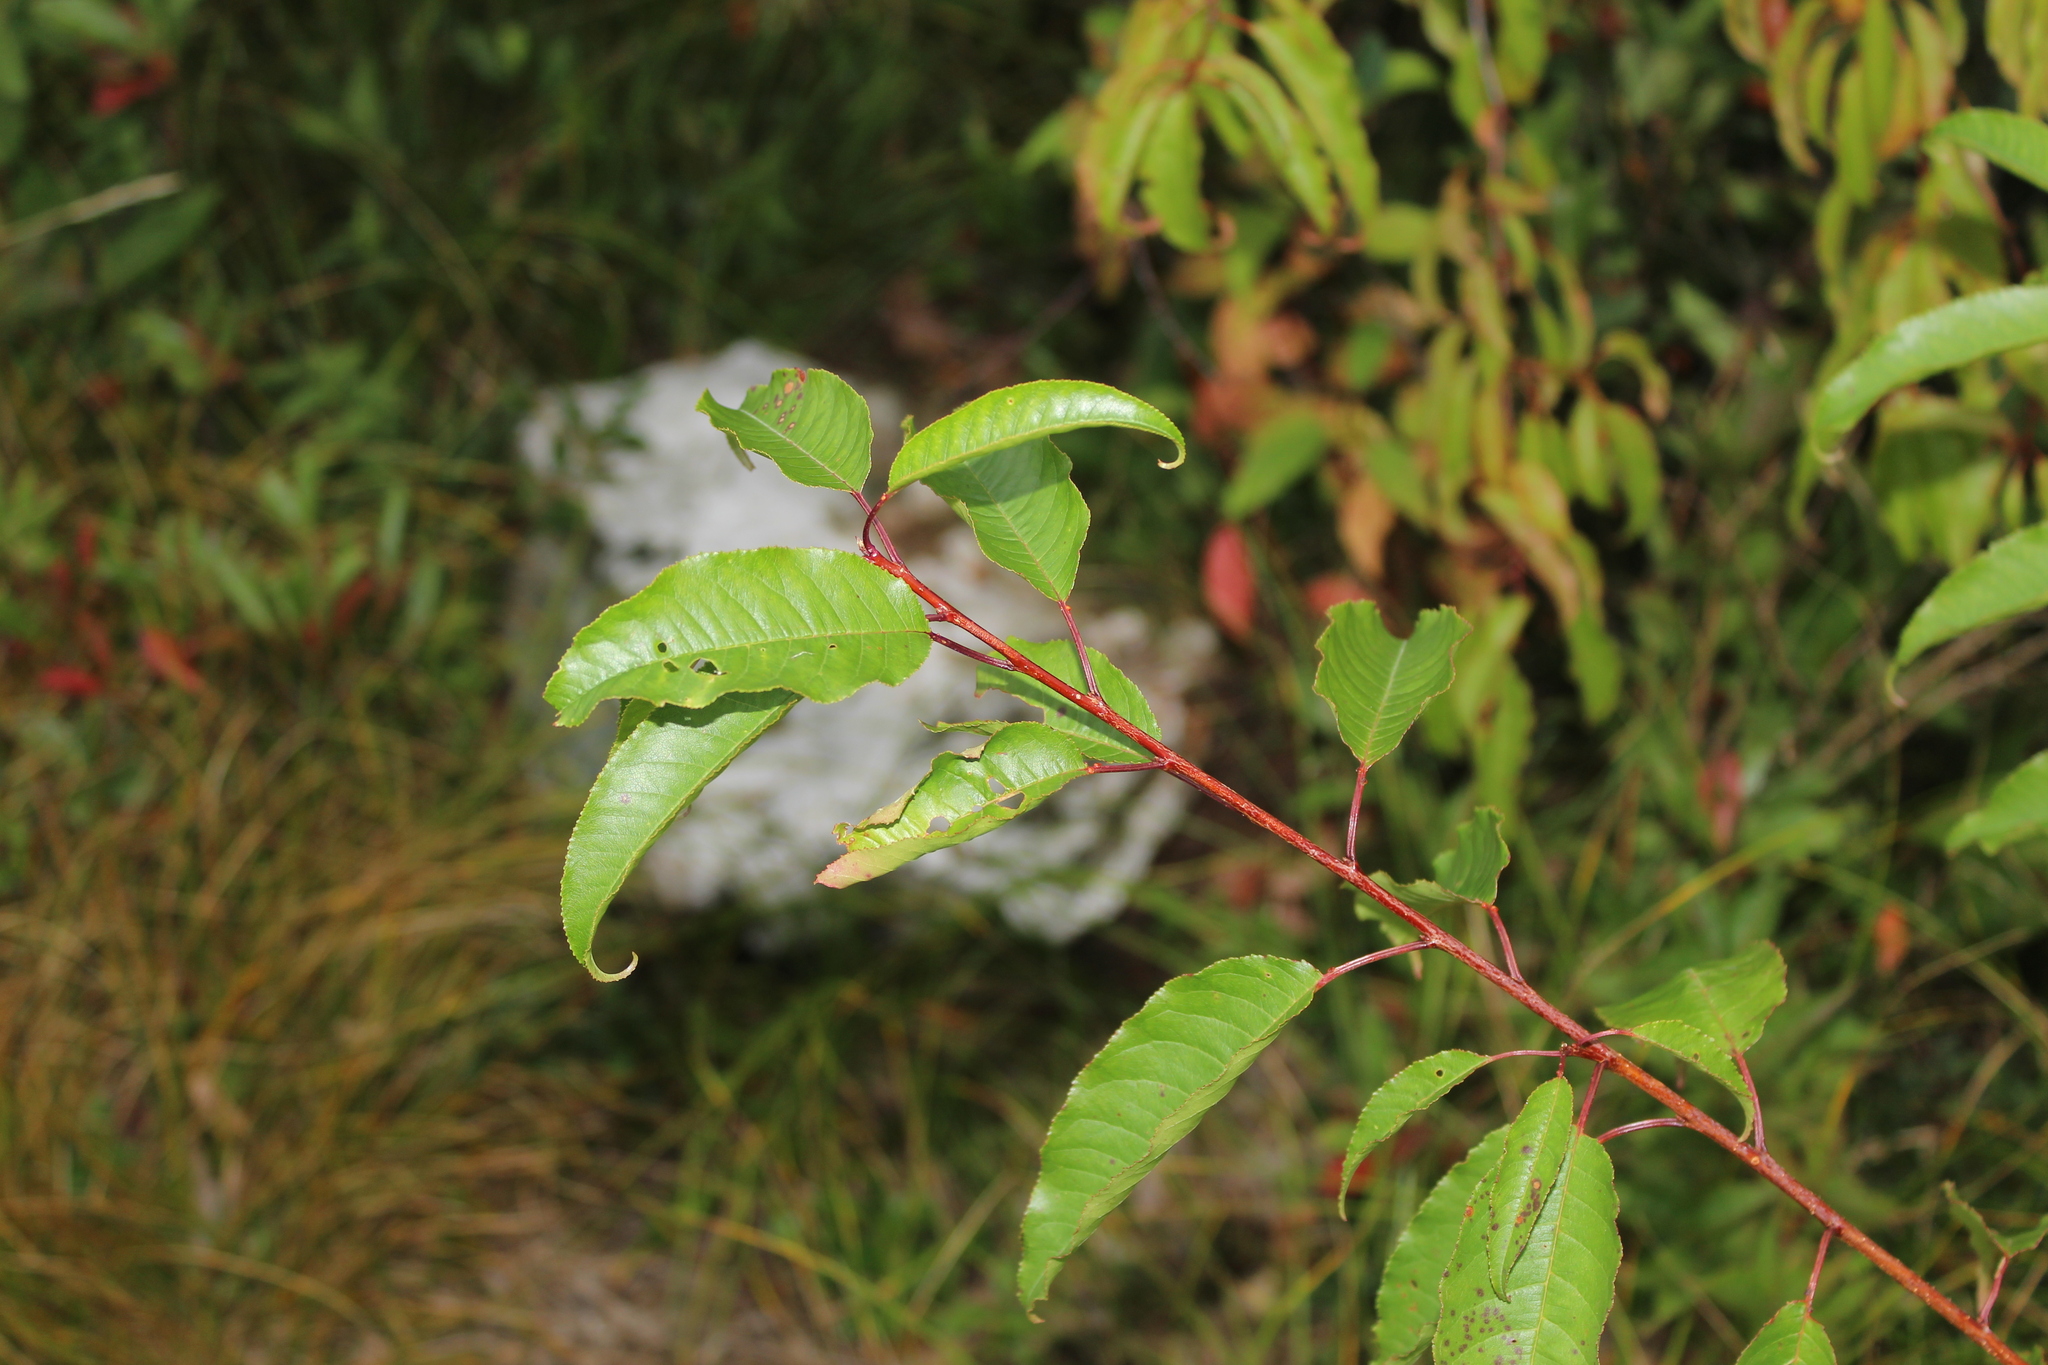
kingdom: Plantae
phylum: Tracheophyta
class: Magnoliopsida
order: Rosales
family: Rosaceae
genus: Prunus
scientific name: Prunus pensylvanica
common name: Pin cherry
